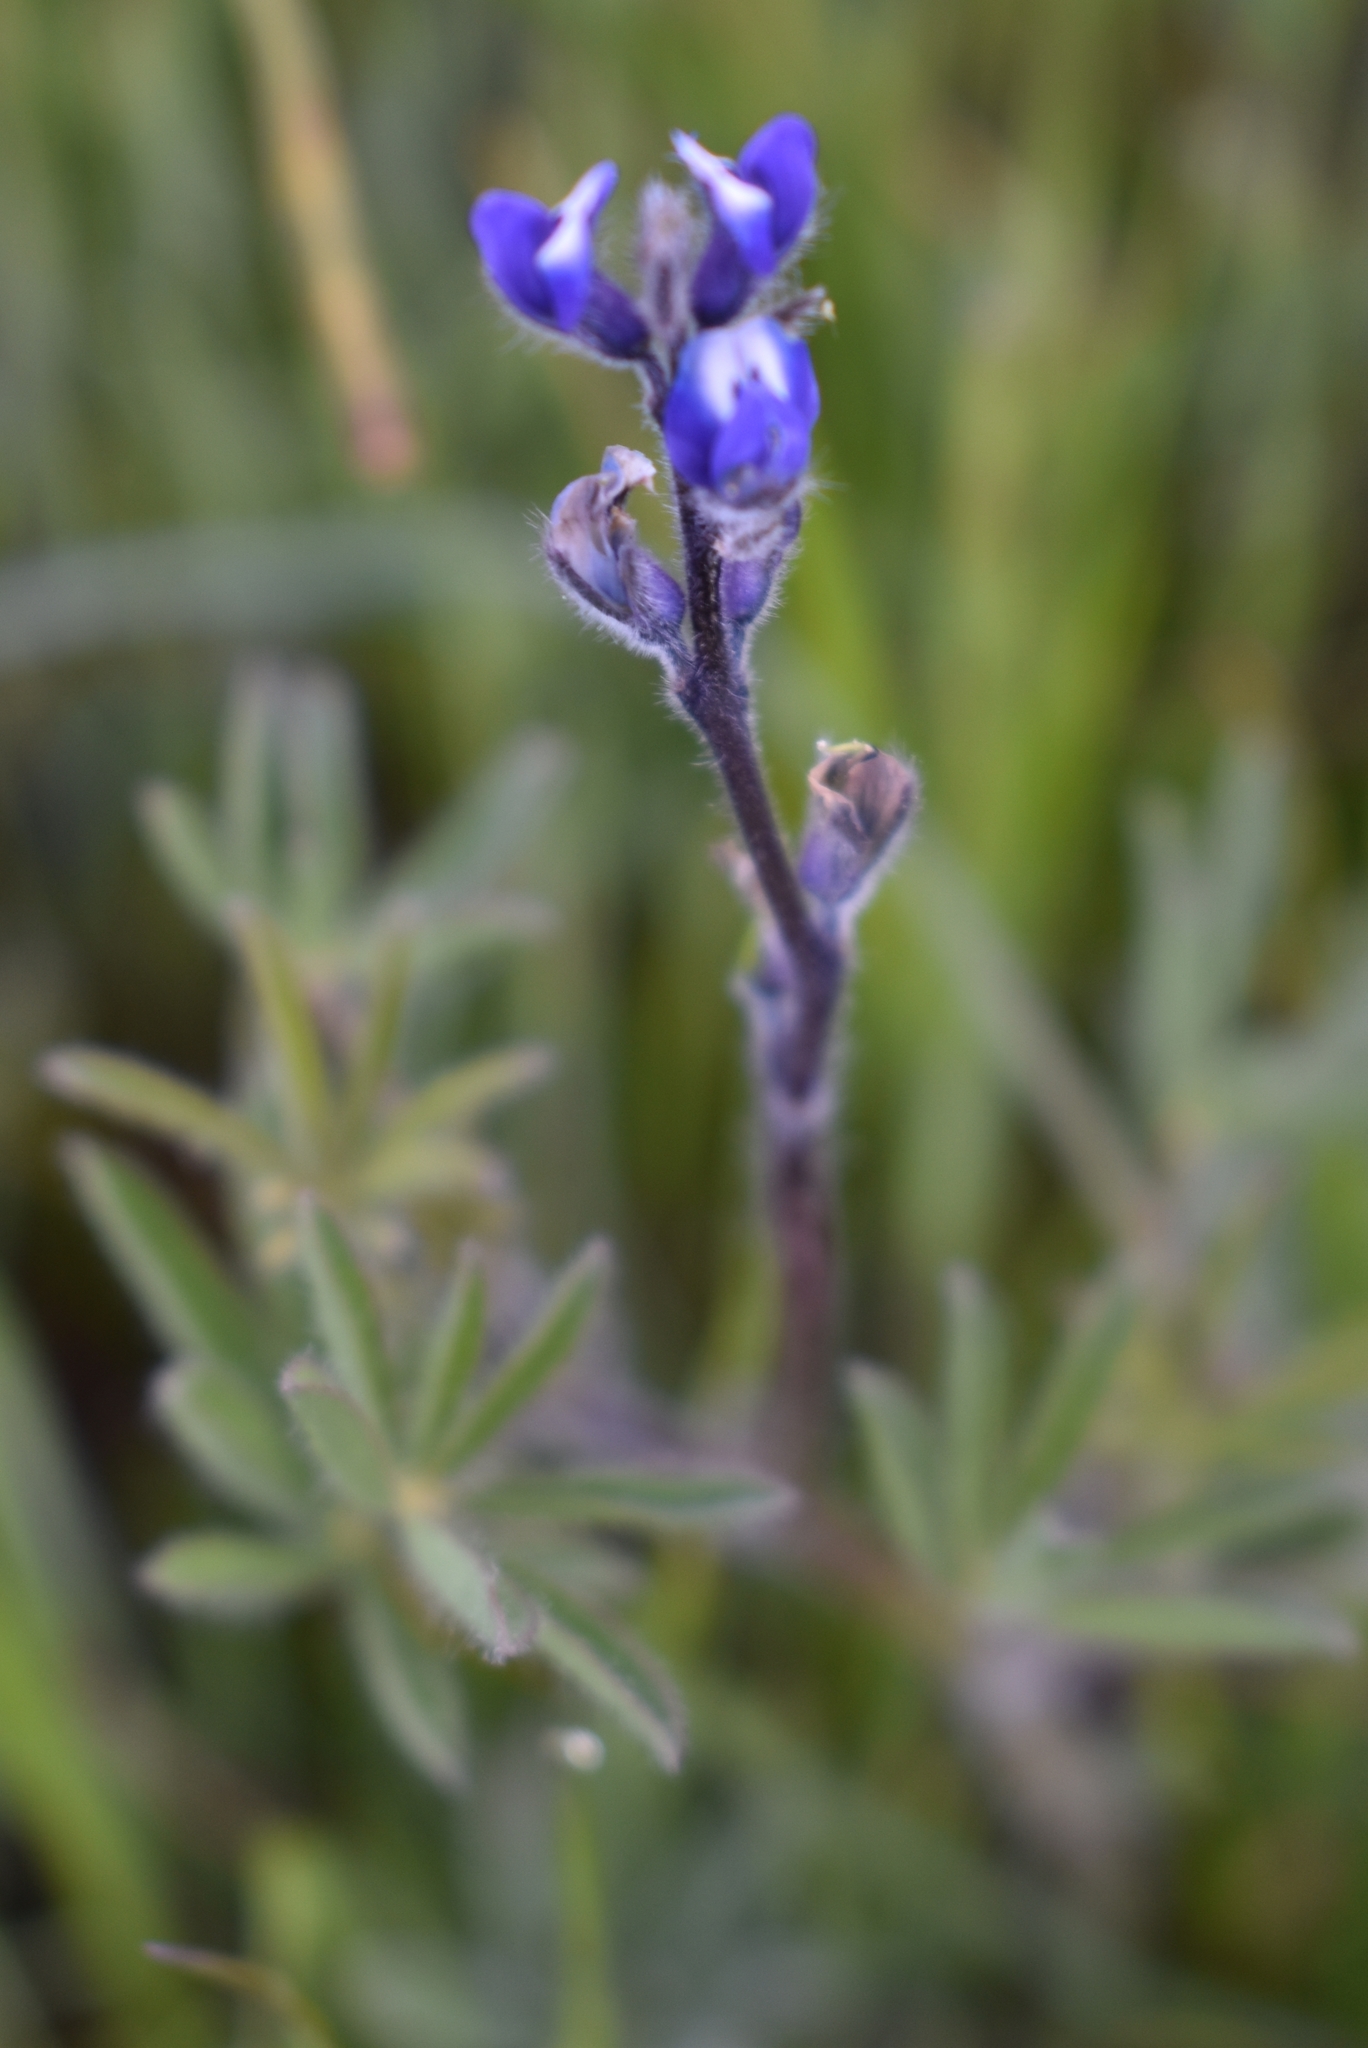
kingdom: Plantae
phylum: Tracheophyta
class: Magnoliopsida
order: Fabales
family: Fabaceae
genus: Lupinus
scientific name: Lupinus bicolor
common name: Miniature lupine
